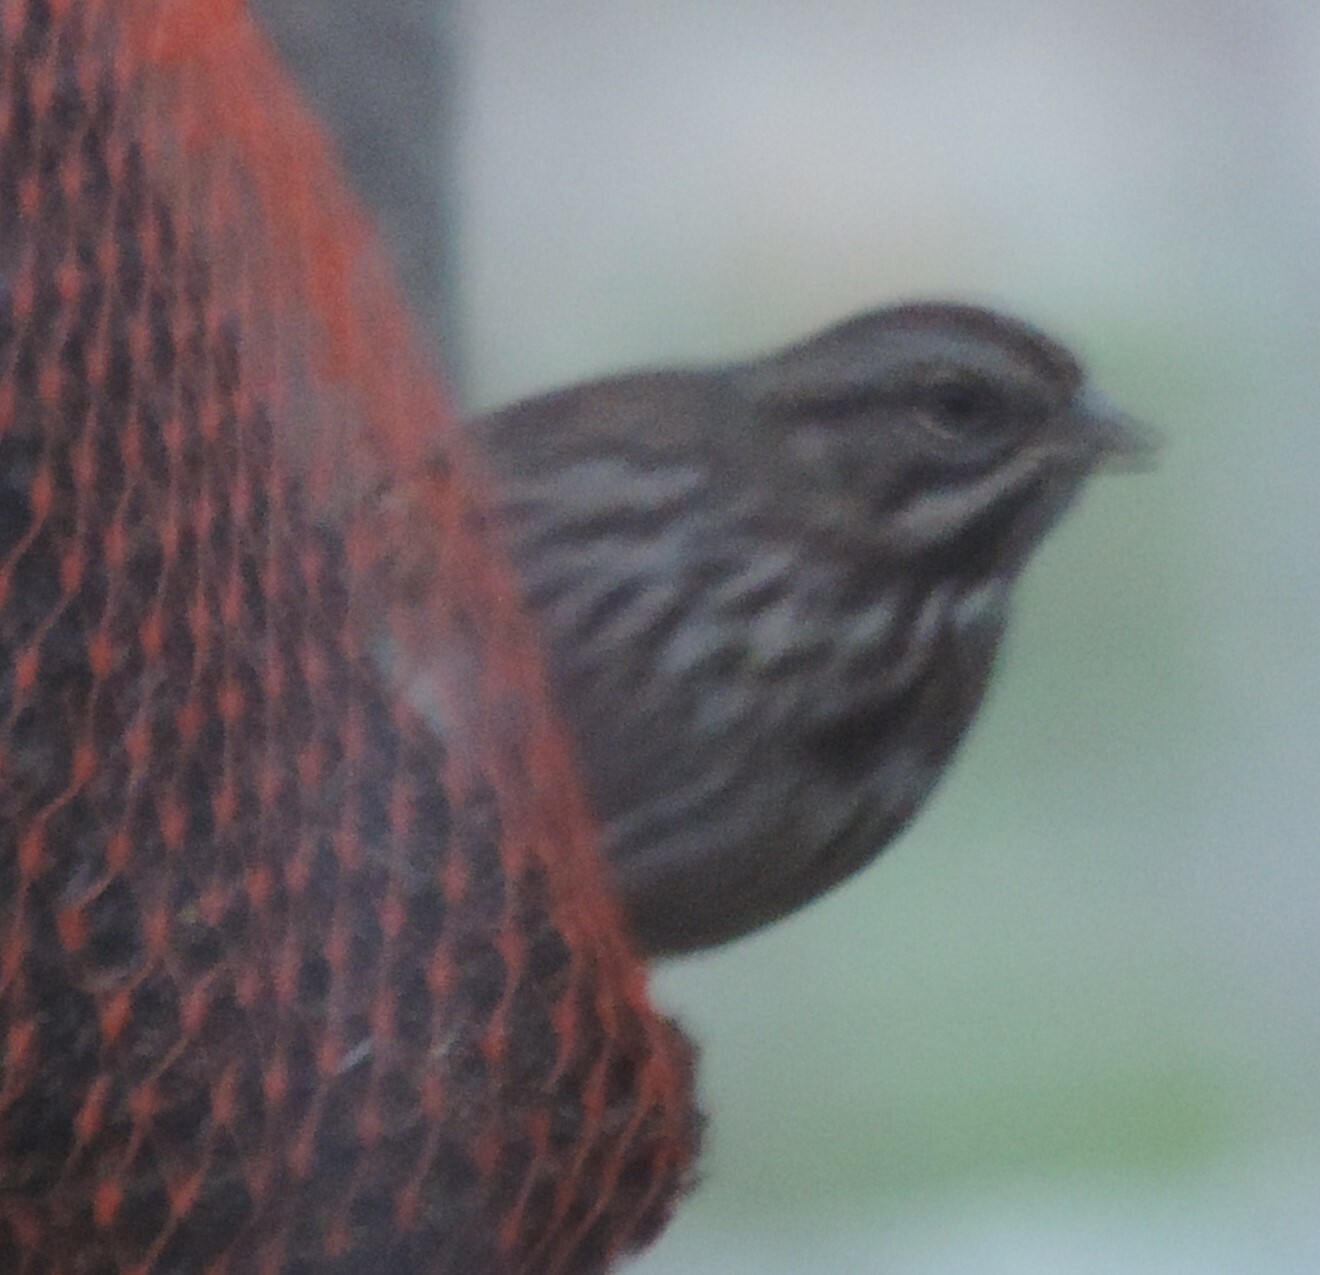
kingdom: Animalia
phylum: Chordata
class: Aves
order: Passeriformes
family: Passerellidae
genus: Melospiza
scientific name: Melospiza melodia
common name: Song sparrow
